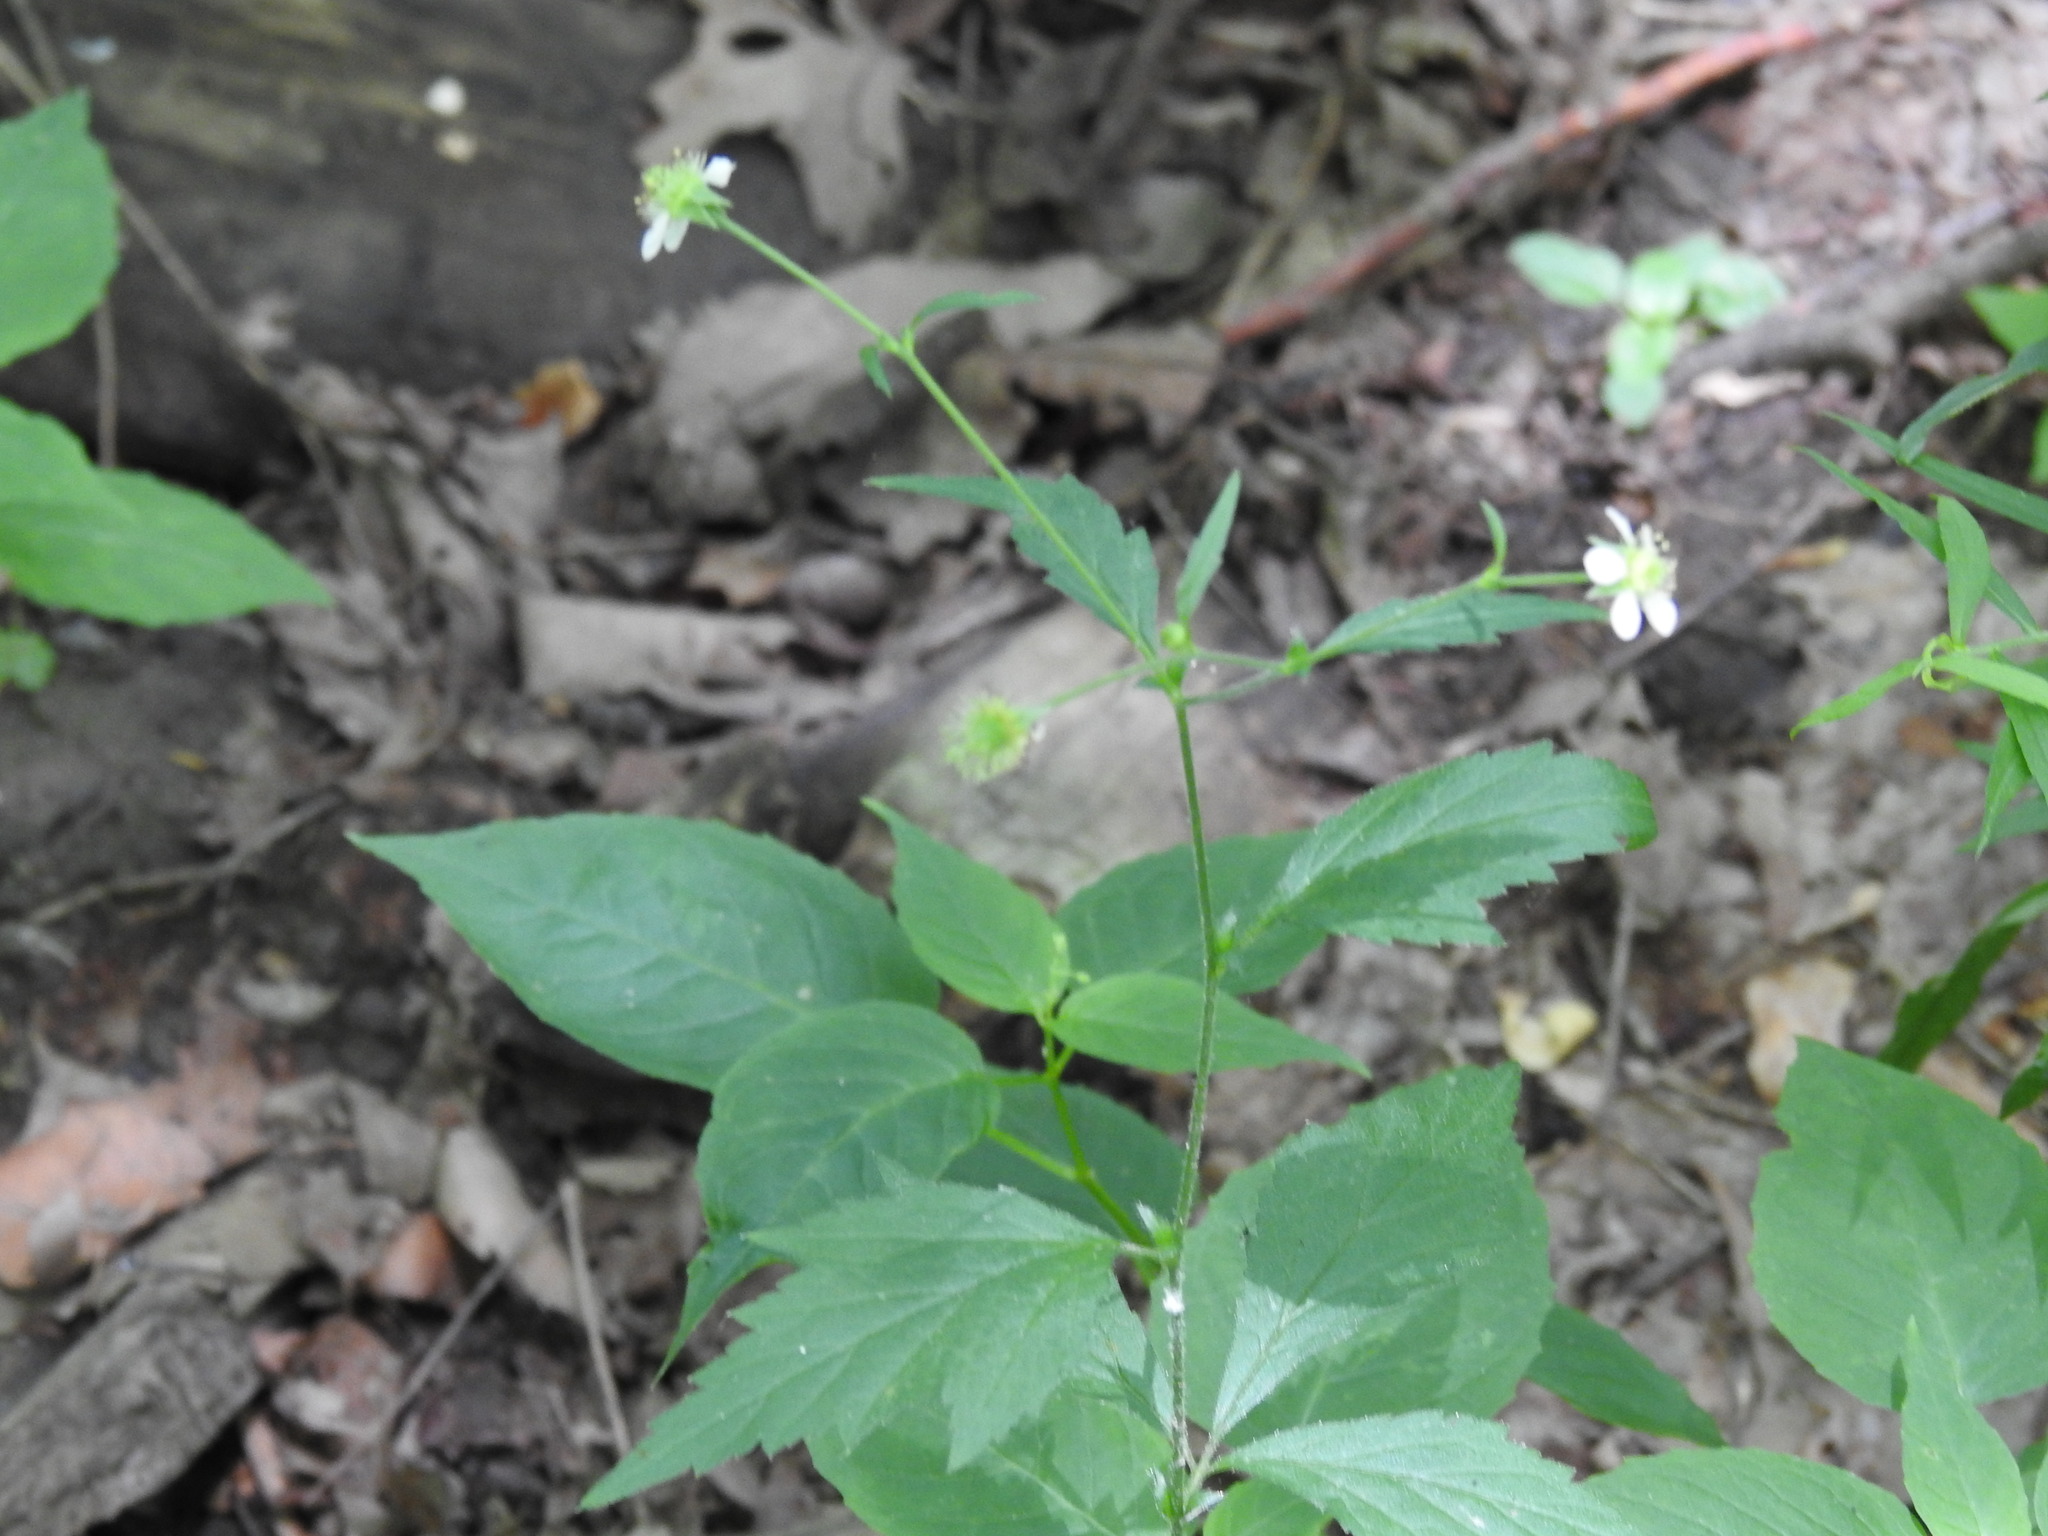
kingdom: Plantae
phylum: Tracheophyta
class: Magnoliopsida
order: Rosales
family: Rosaceae
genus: Geum
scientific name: Geum canadense
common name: White avens
